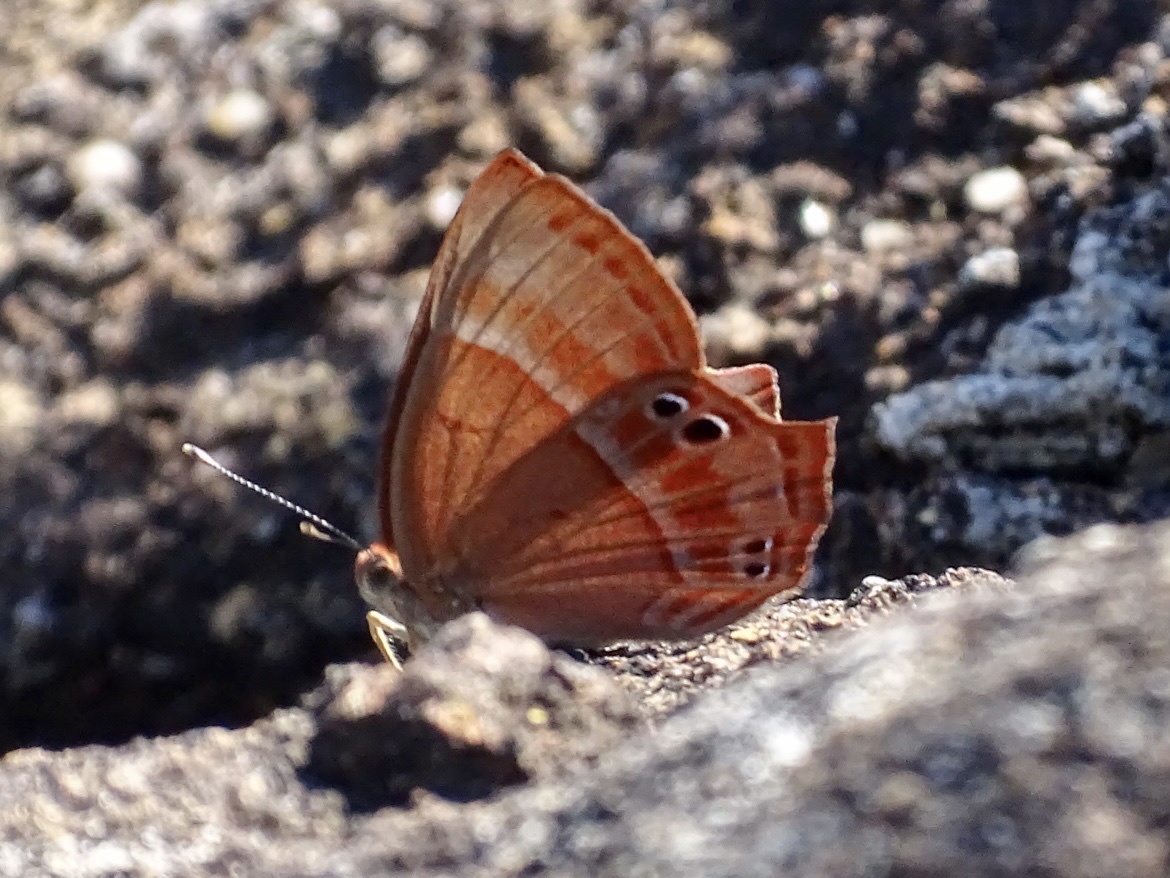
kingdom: Animalia
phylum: Arthropoda
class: Insecta
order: Lepidoptera
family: Lycaenidae
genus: Abisara
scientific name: Abisara echeria
